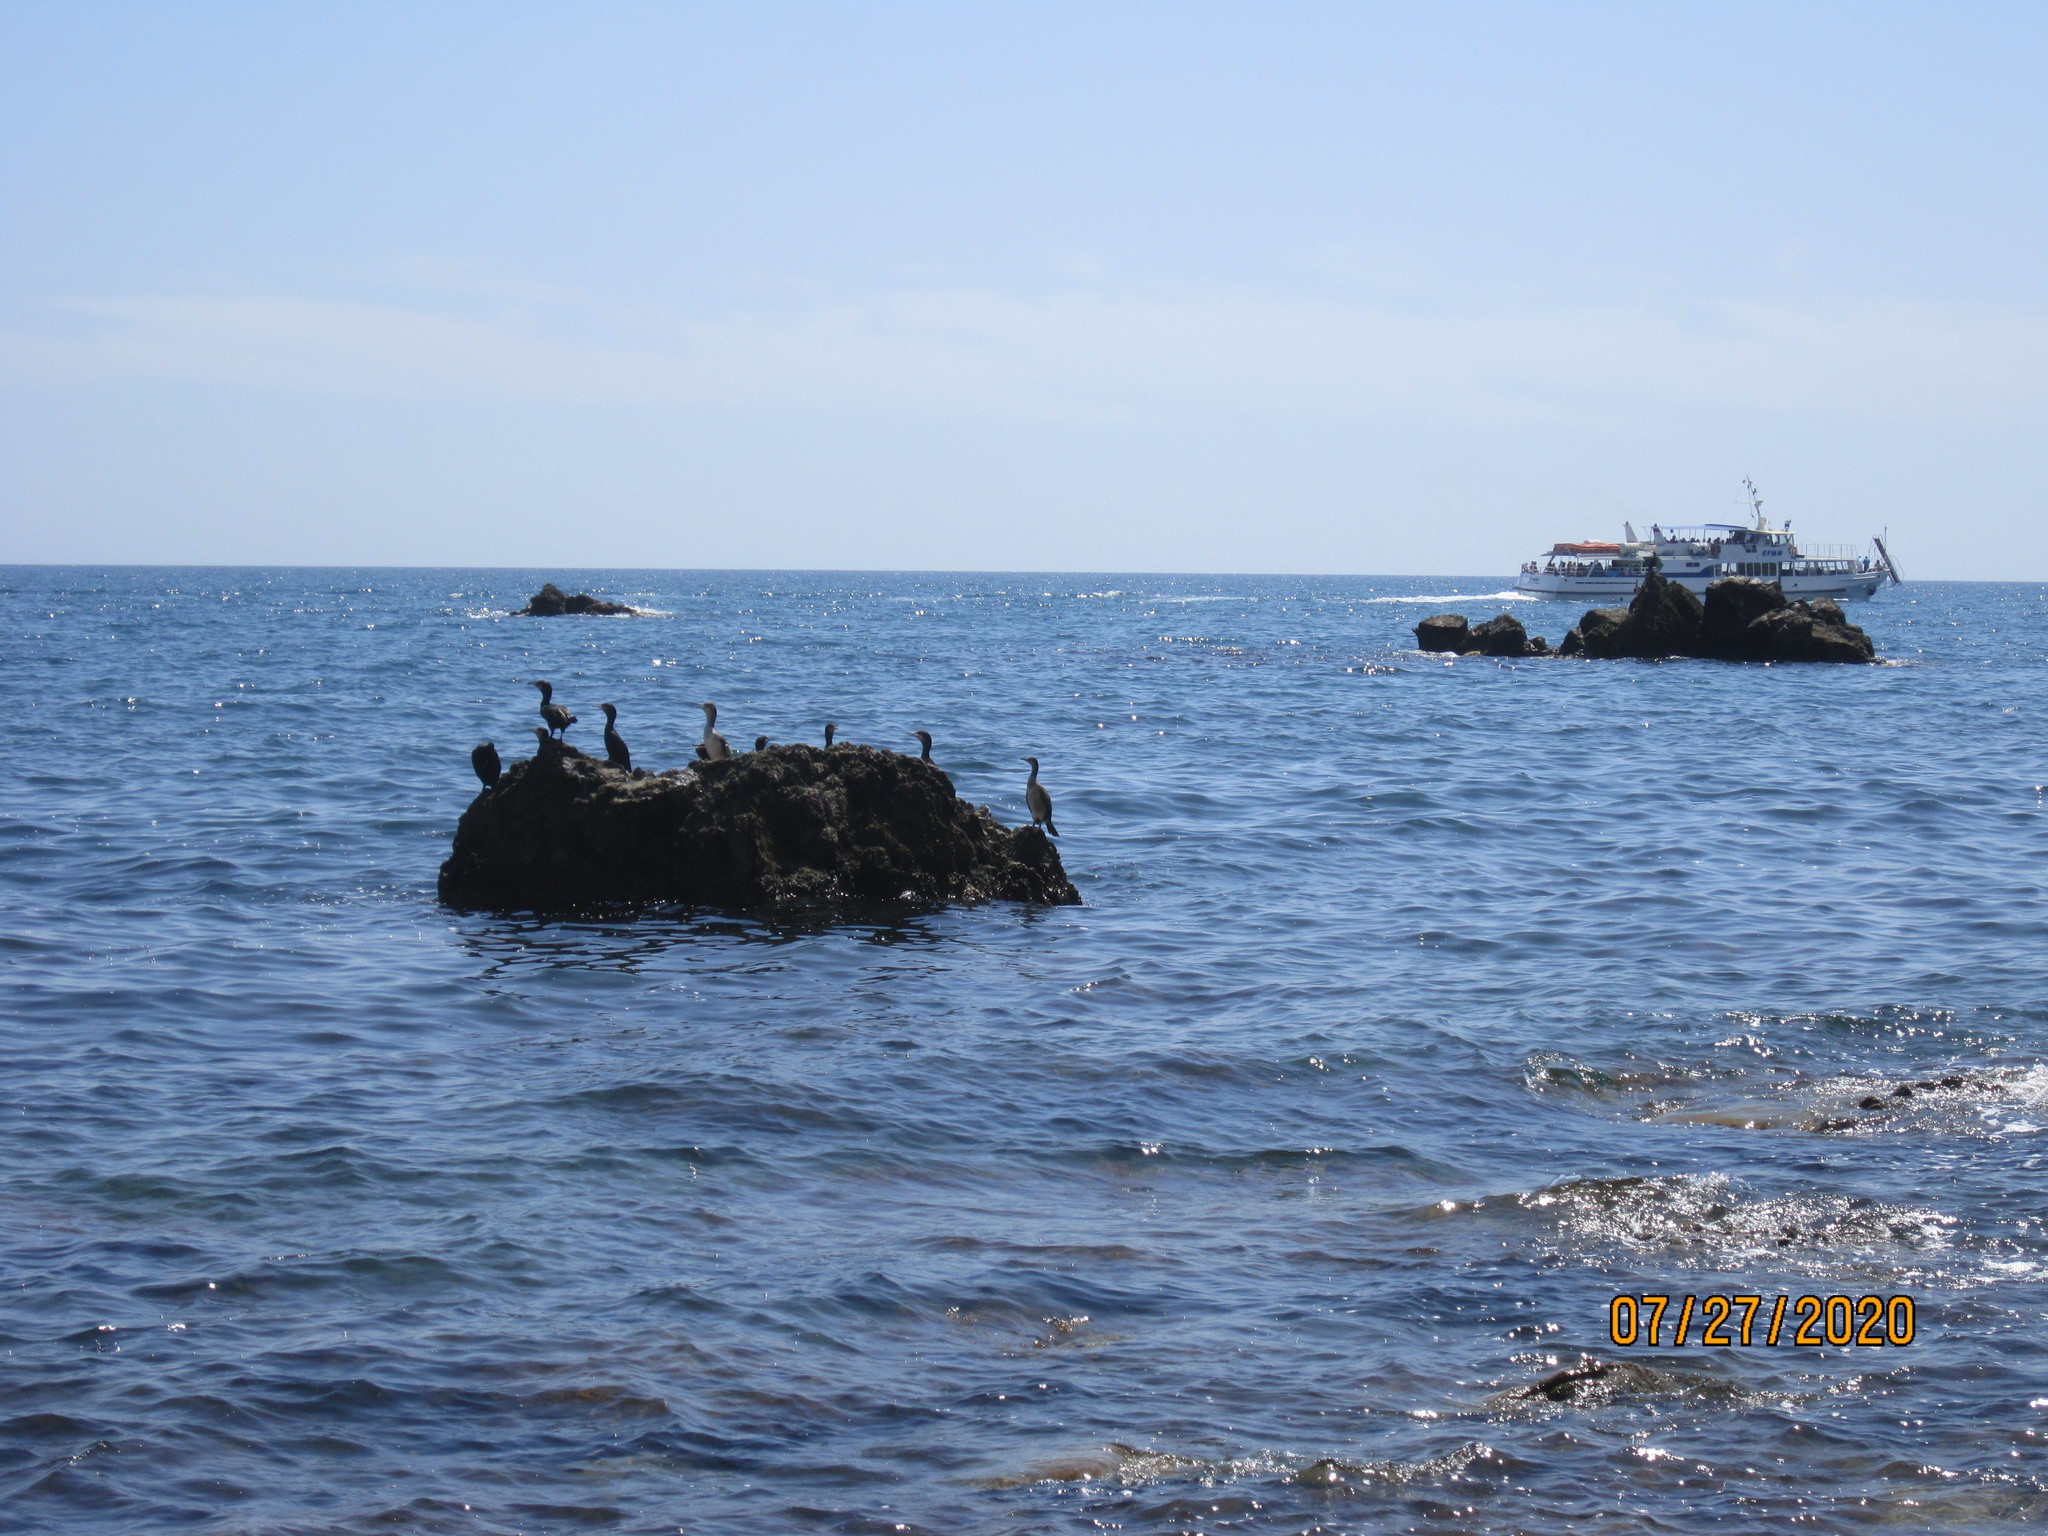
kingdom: Animalia
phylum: Chordata
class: Aves
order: Suliformes
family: Phalacrocoracidae
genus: Phalacrocorax
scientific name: Phalacrocorax carbo
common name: Great cormorant
